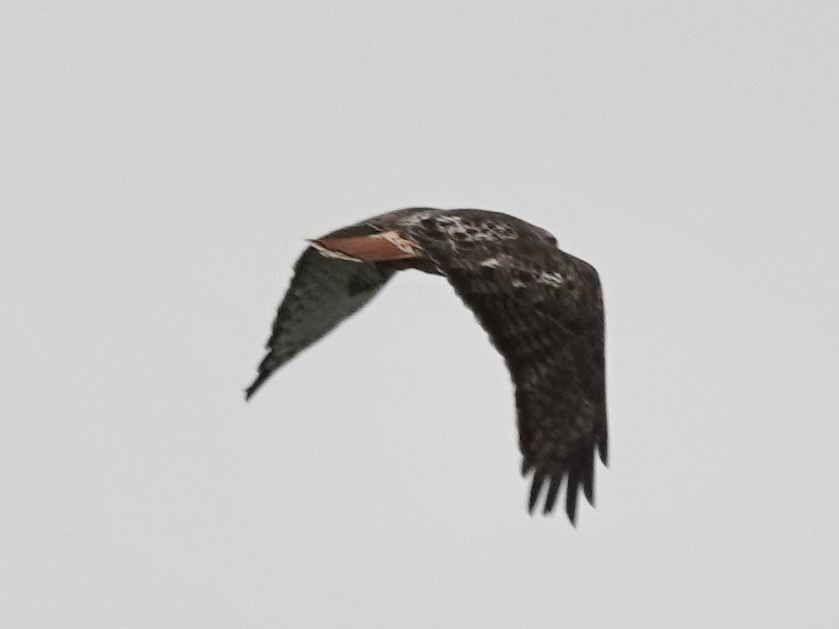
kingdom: Animalia
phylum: Chordata
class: Aves
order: Accipitriformes
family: Accipitridae
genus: Buteo
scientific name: Buteo jamaicensis
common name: Red-tailed hawk
